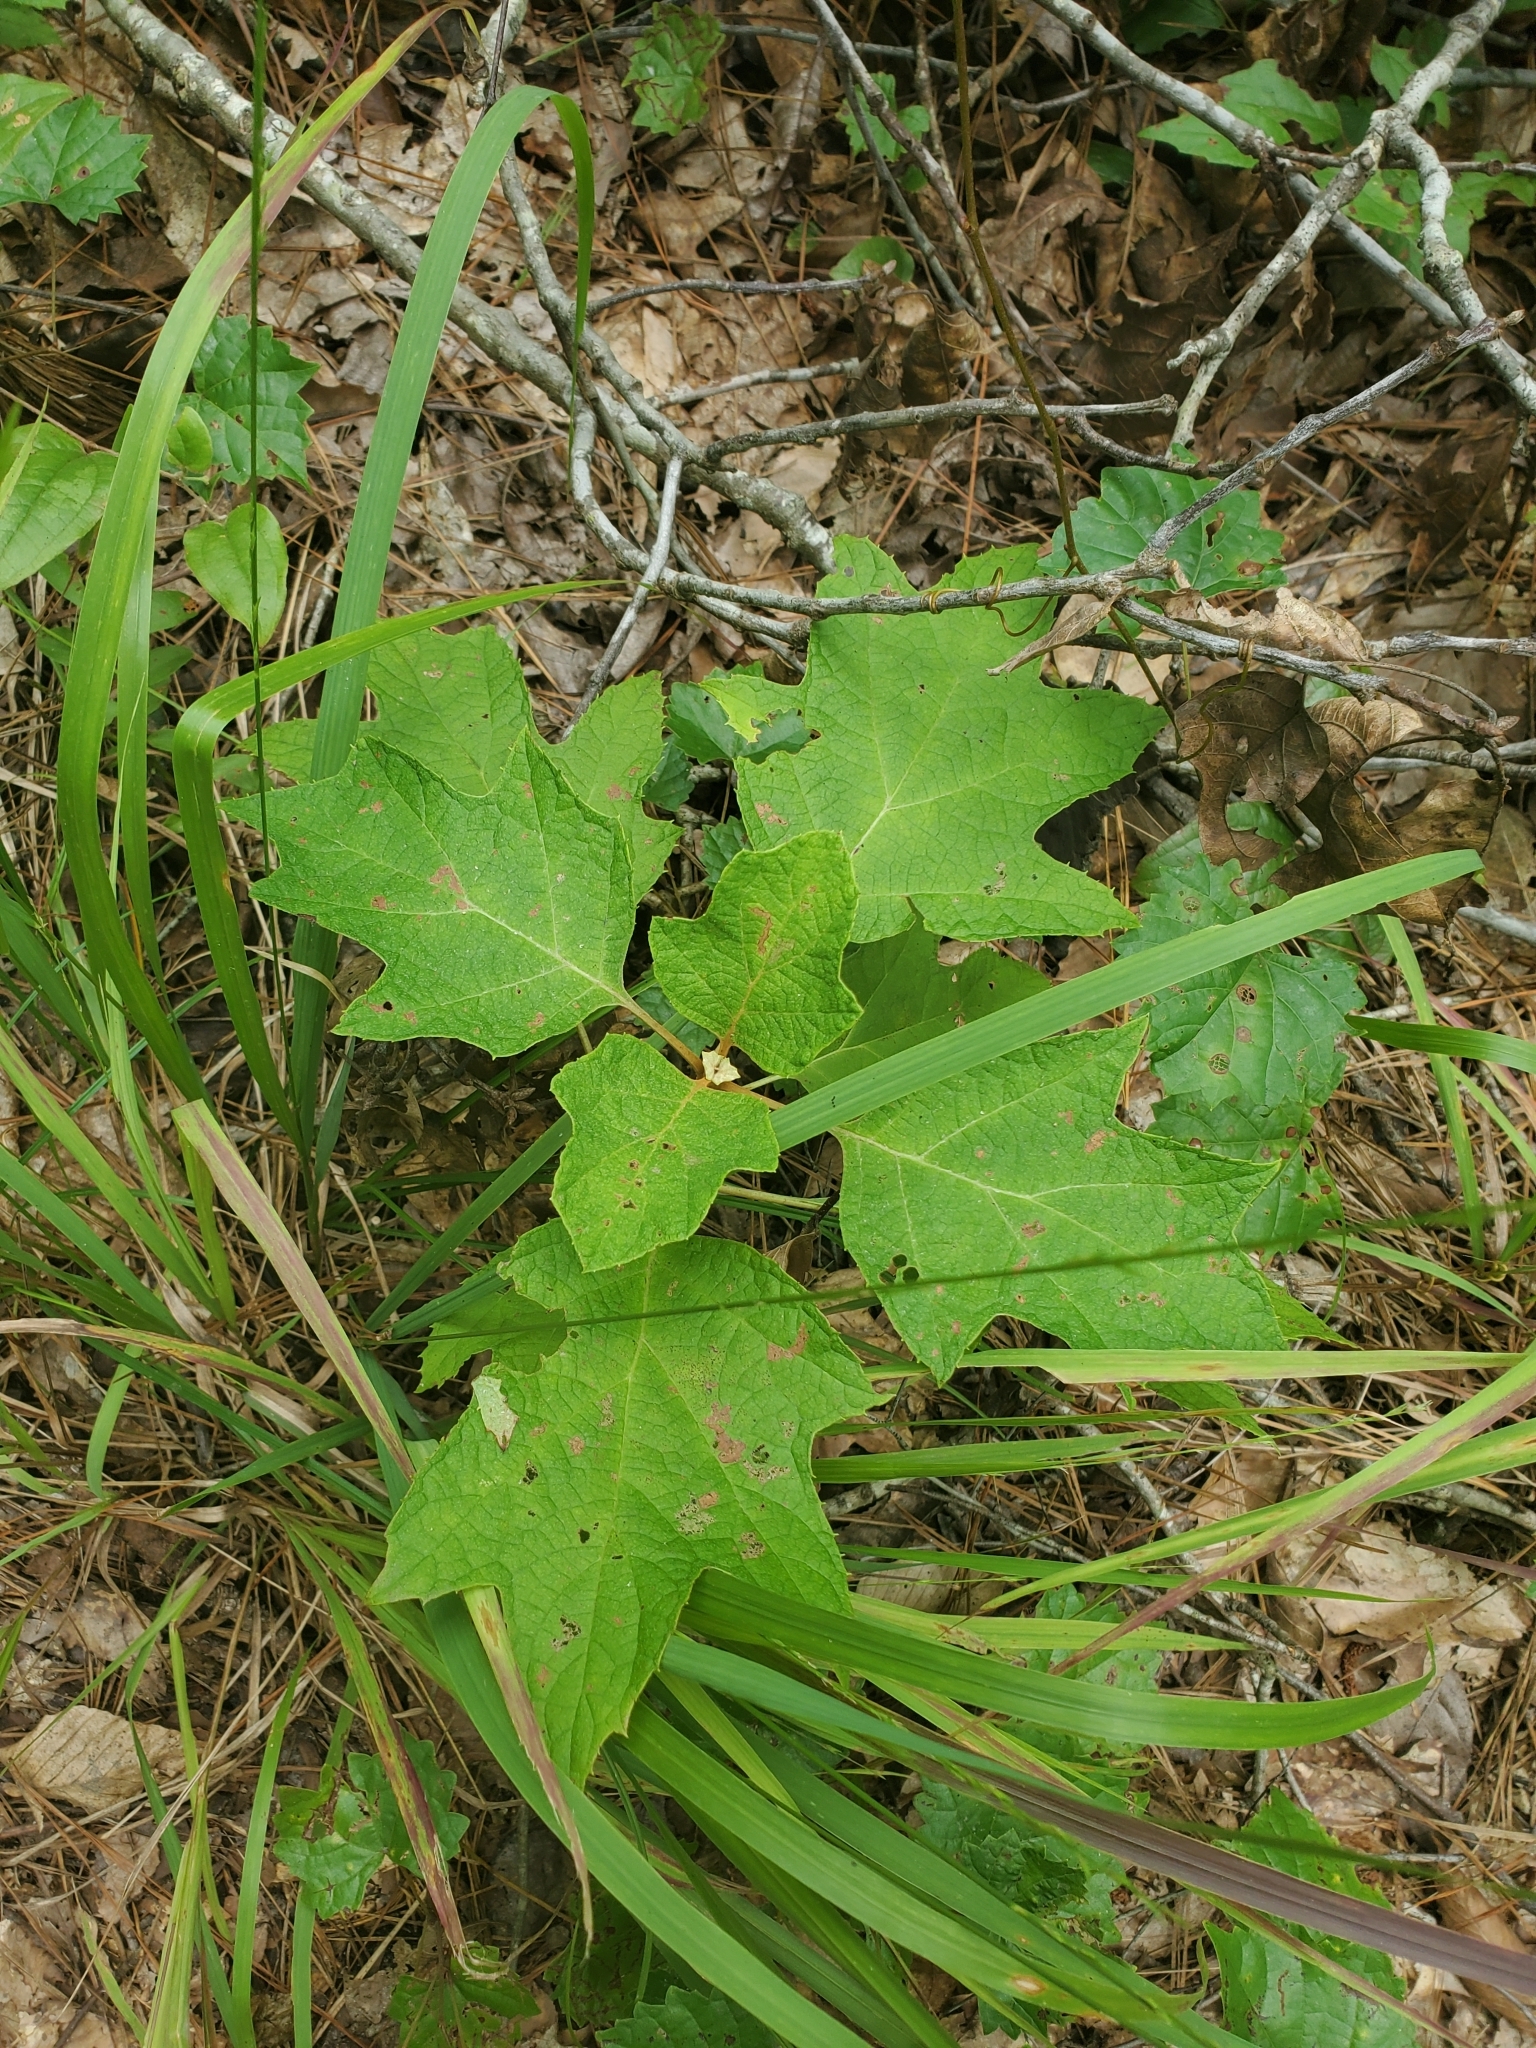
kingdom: Plantae
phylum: Tracheophyta
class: Magnoliopsida
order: Cornales
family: Hydrangeaceae
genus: Hydrangea
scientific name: Hydrangea quercifolia
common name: Oak-leaf hydrangea
